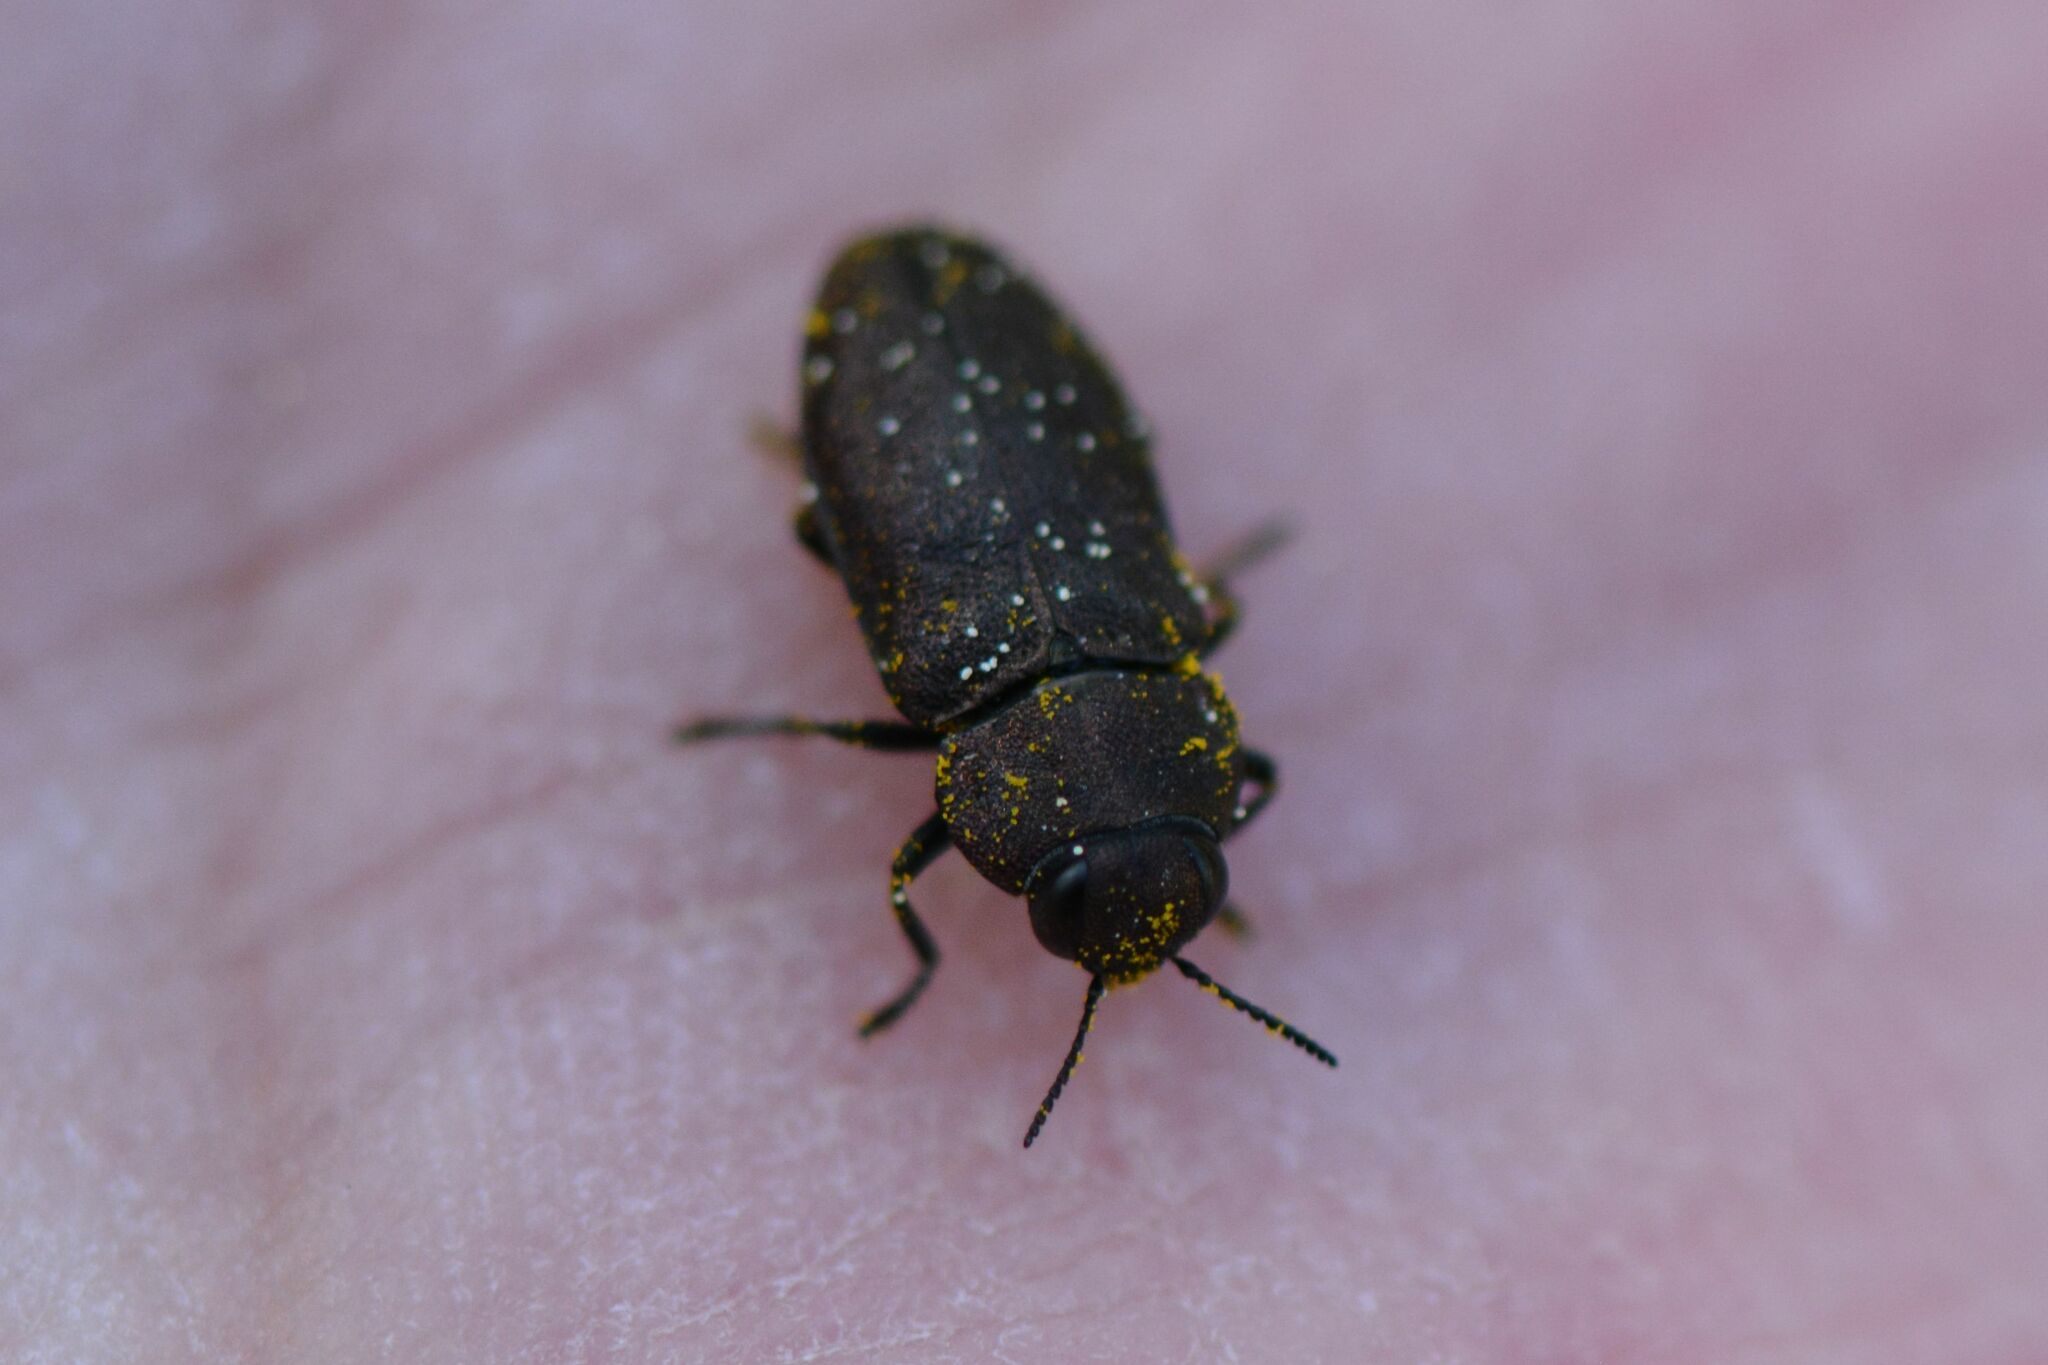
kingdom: Animalia
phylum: Arthropoda
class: Insecta
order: Coleoptera
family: Buprestidae
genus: Anthaxia
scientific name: Anthaxia helvetica
